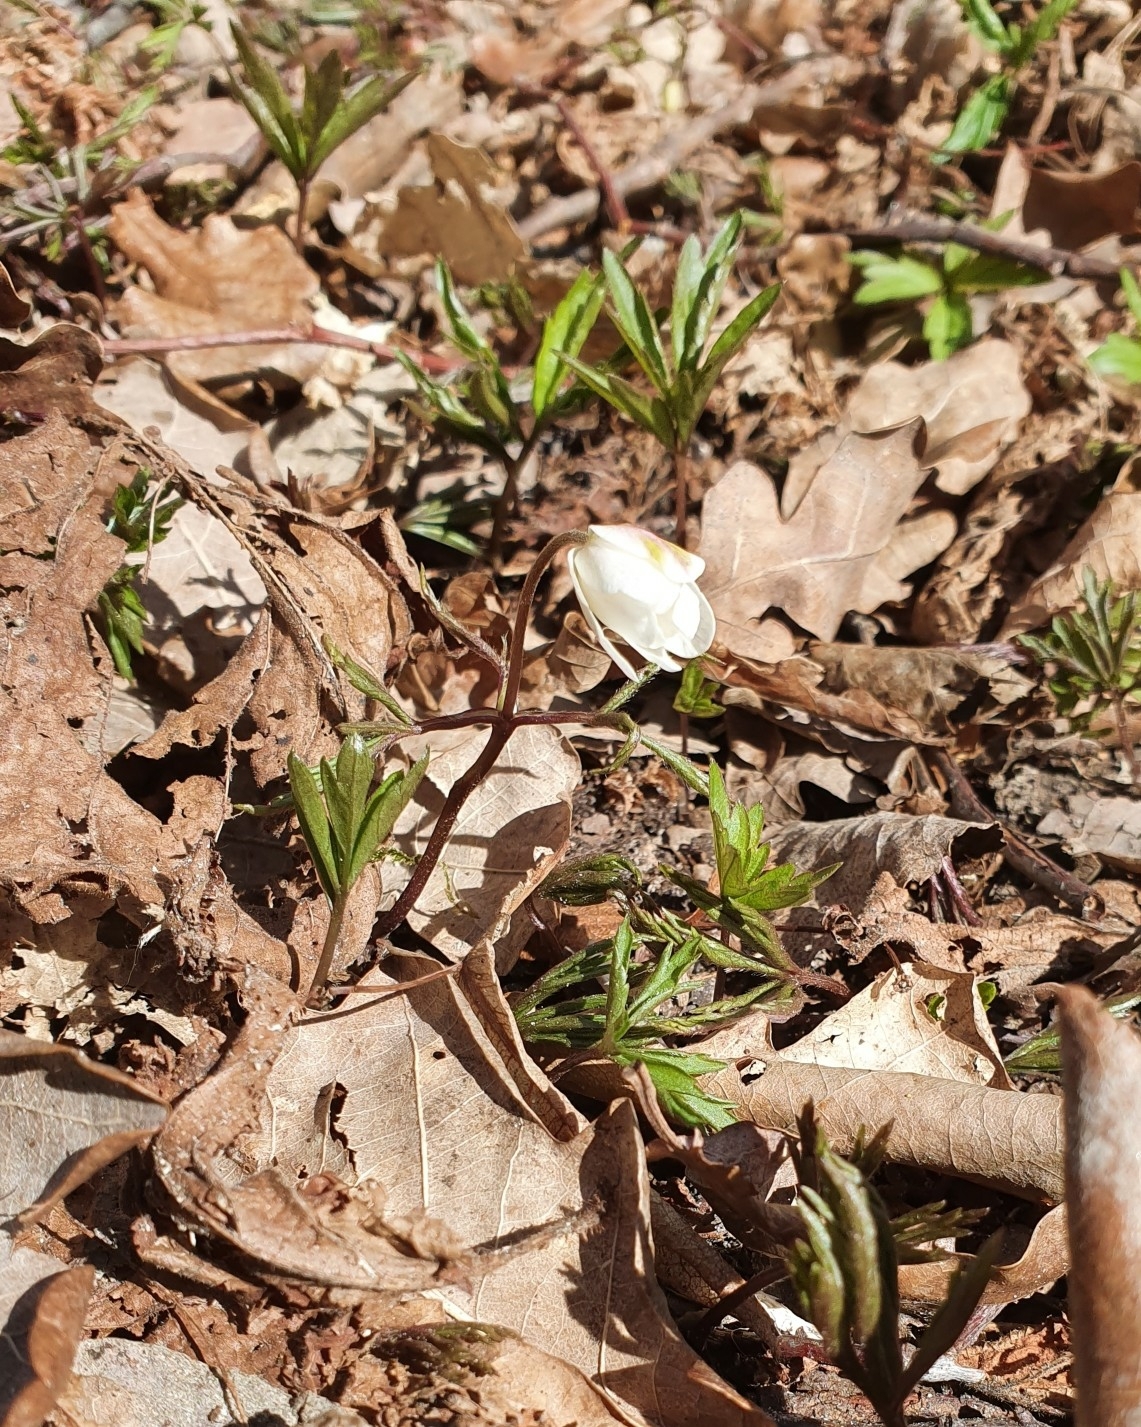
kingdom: Plantae
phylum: Tracheophyta
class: Magnoliopsida
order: Ranunculales
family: Ranunculaceae
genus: Anemone
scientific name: Anemone nemorosa
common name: Wood anemone
